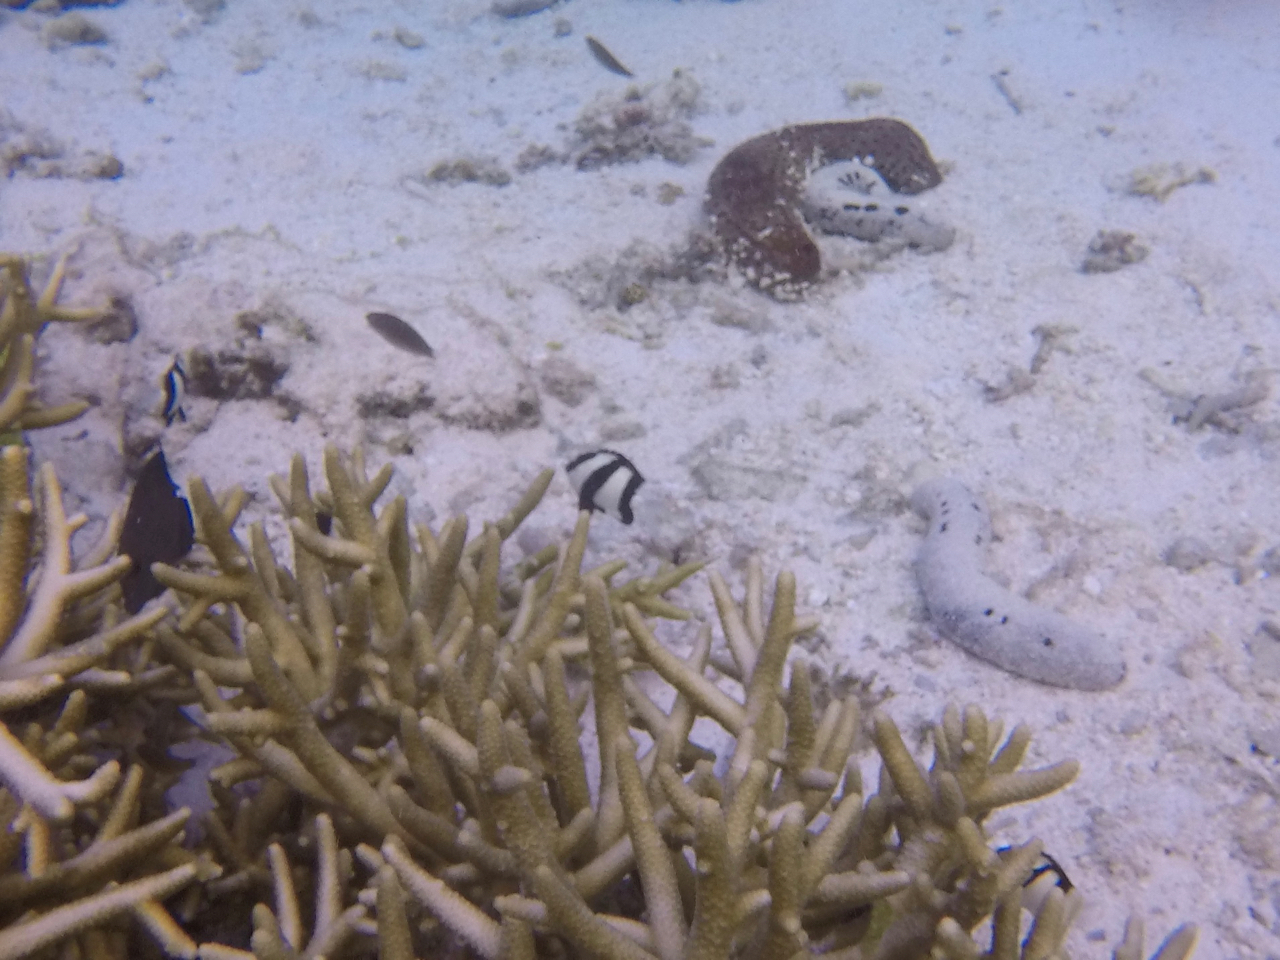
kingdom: Animalia
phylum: Chordata
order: Perciformes
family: Pomacentridae
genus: Dascyllus
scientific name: Dascyllus aruanus
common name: Humbug dascyllus
